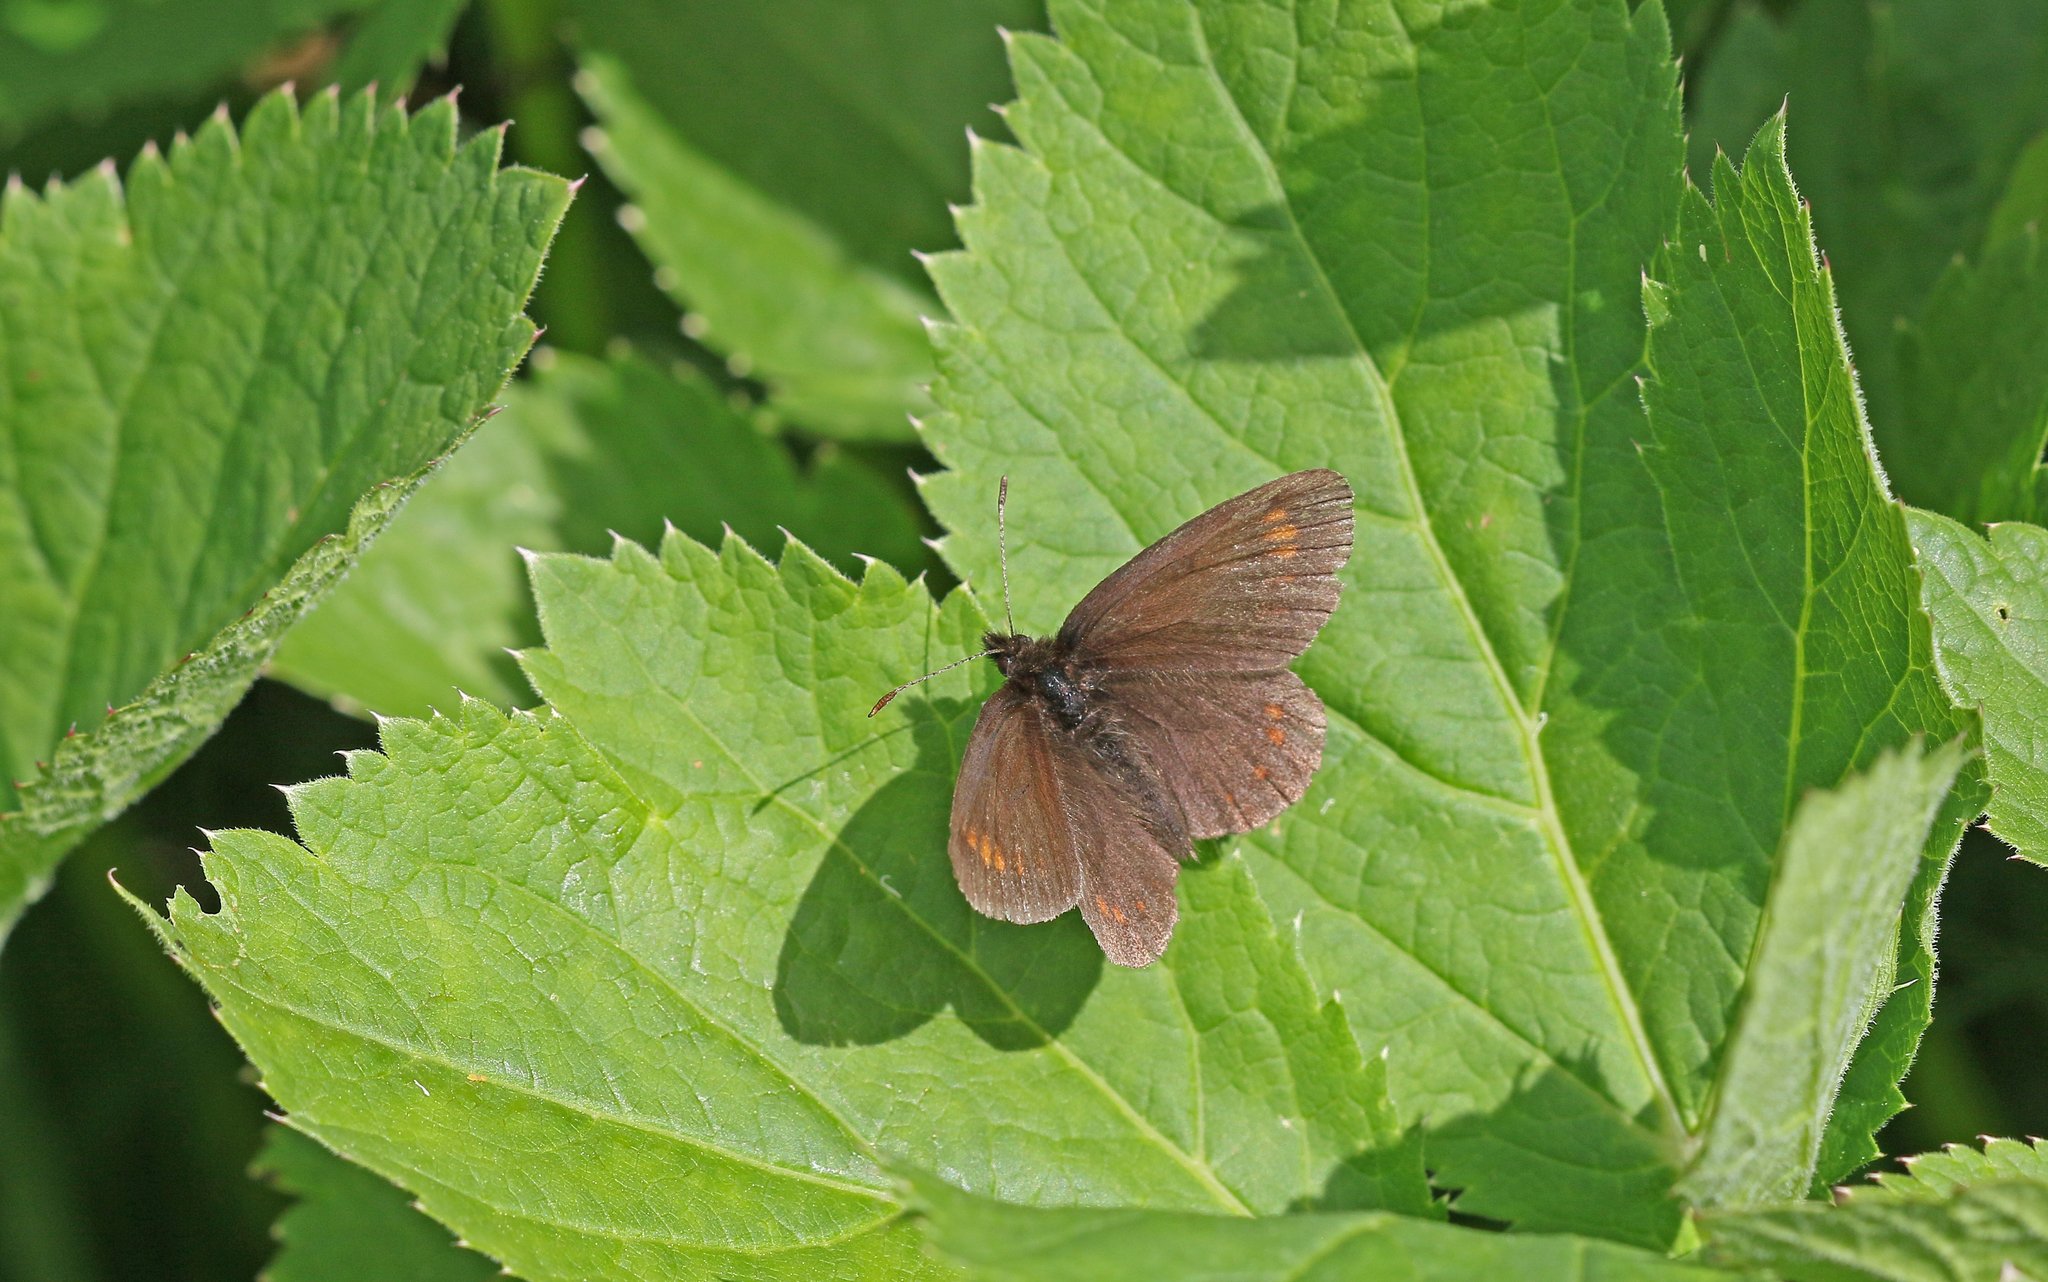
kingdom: Animalia
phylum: Arthropoda
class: Insecta
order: Lepidoptera
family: Nymphalidae
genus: Erebia
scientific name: Erebia pharte
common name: Blind ringlet
